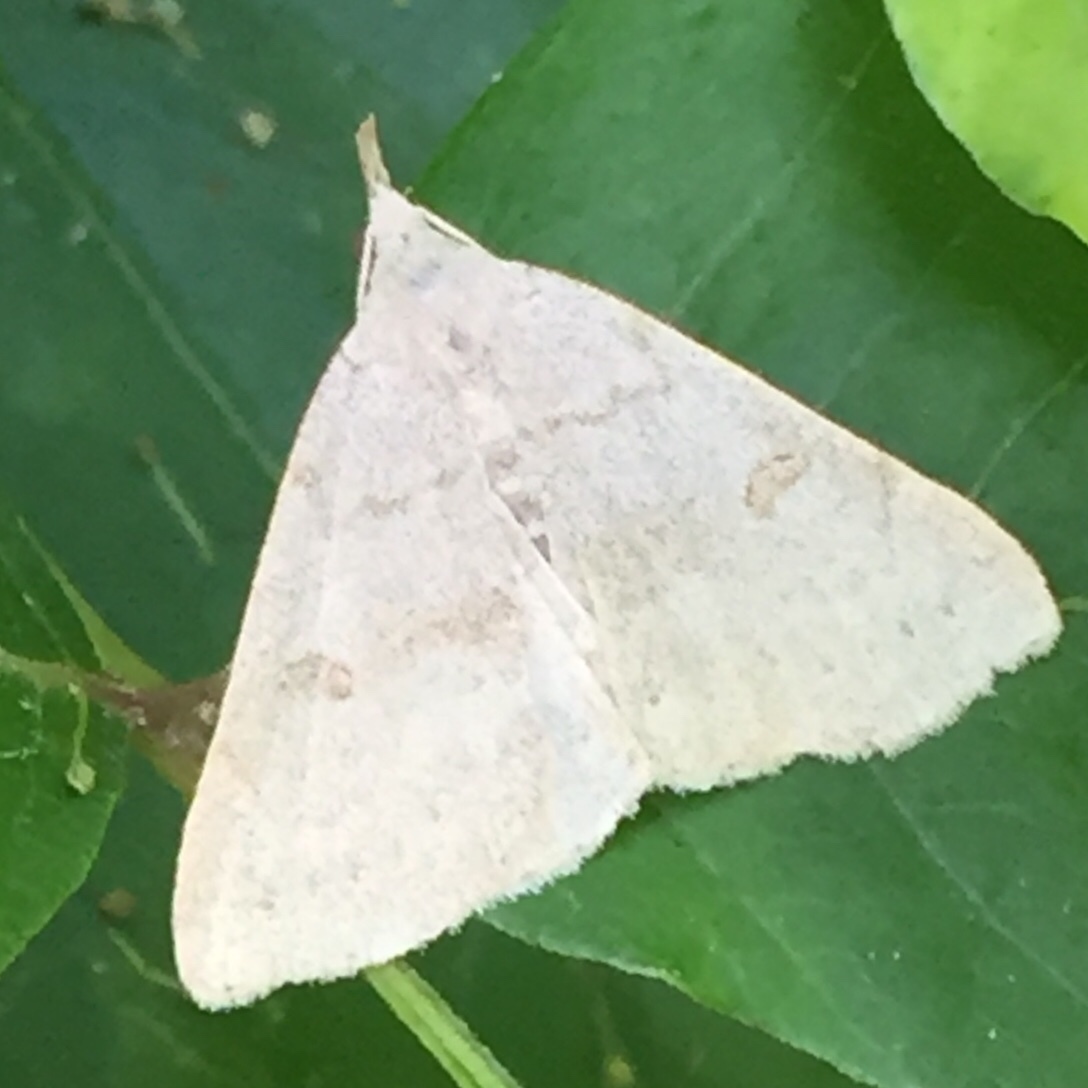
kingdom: Animalia
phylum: Arthropoda
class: Insecta
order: Lepidoptera
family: Erebidae
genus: Macrochilo
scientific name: Macrochilo morbidalis
